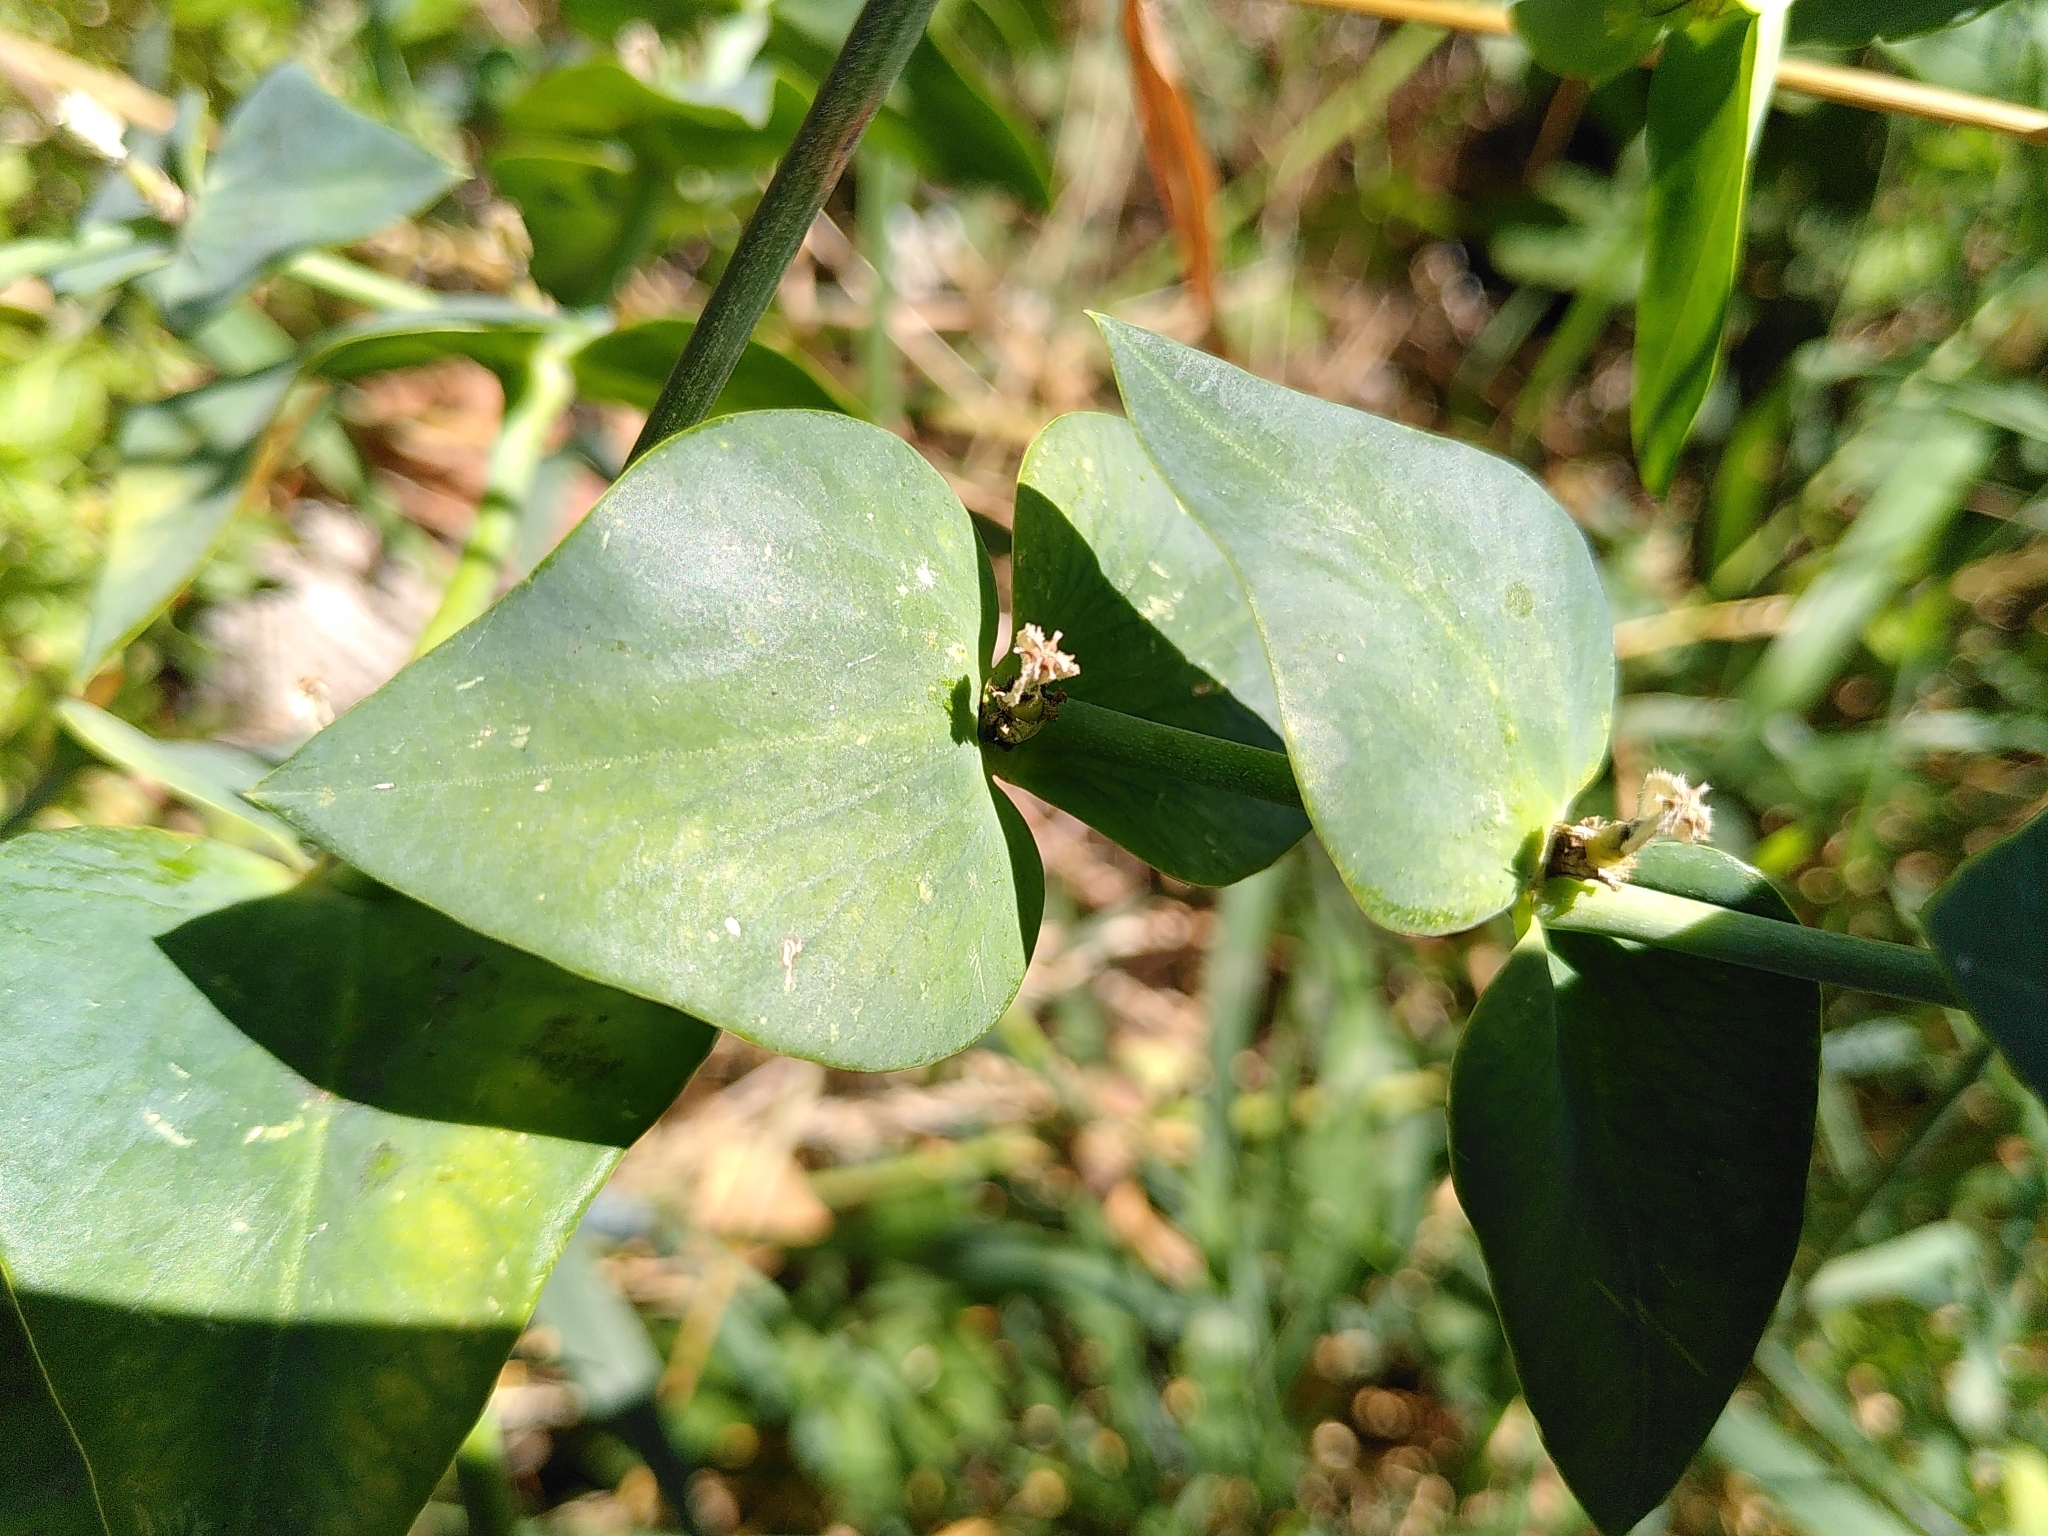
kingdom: Plantae
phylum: Tracheophyta
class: Magnoliopsida
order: Malpighiales
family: Euphorbiaceae
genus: Euphorbia
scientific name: Euphorbia lathyris
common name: Caper spurge
